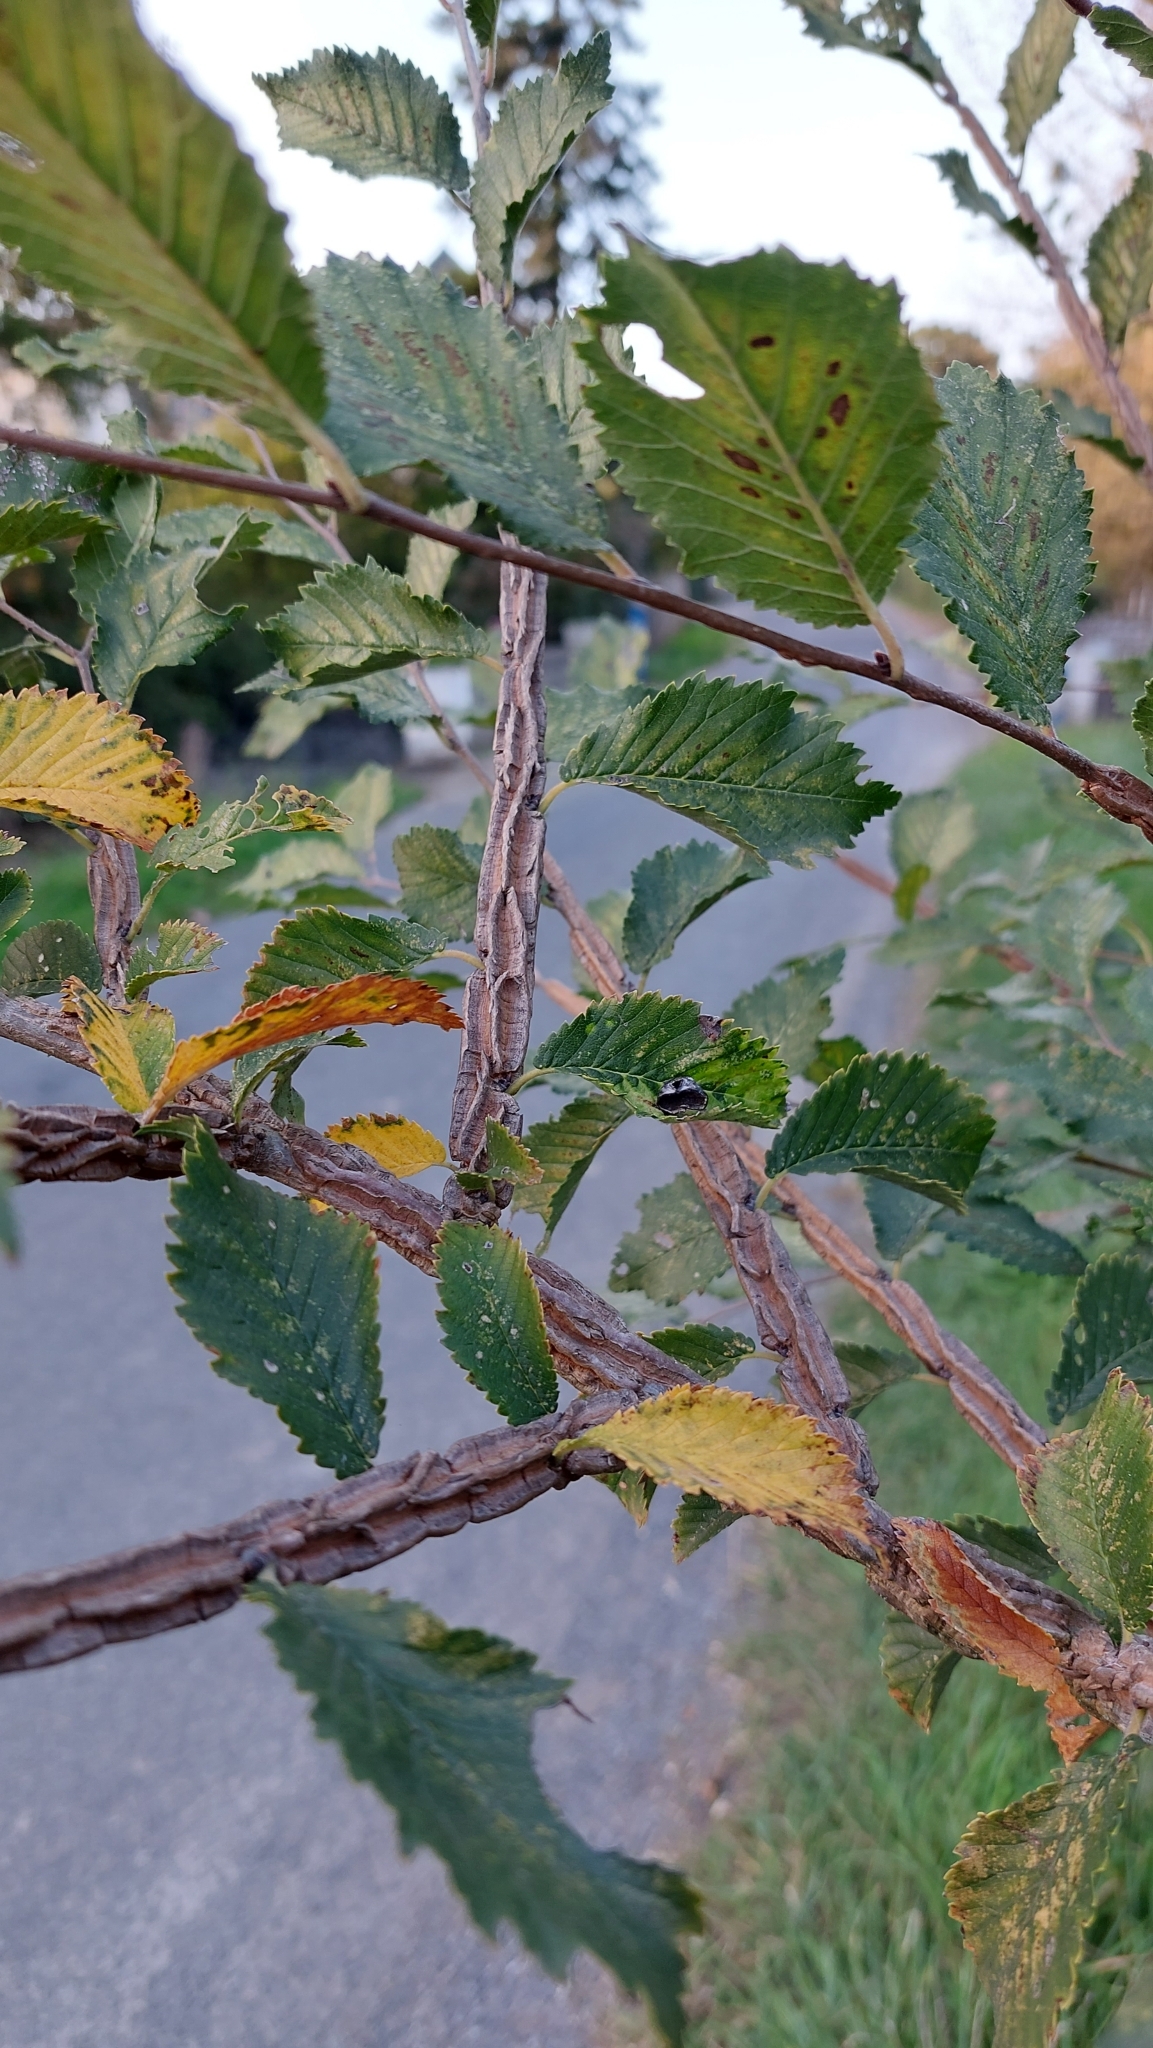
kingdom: Plantae
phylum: Tracheophyta
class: Magnoliopsida
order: Rosales
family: Ulmaceae
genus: Ulmus
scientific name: Ulmus minor
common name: Small-leaved elm
